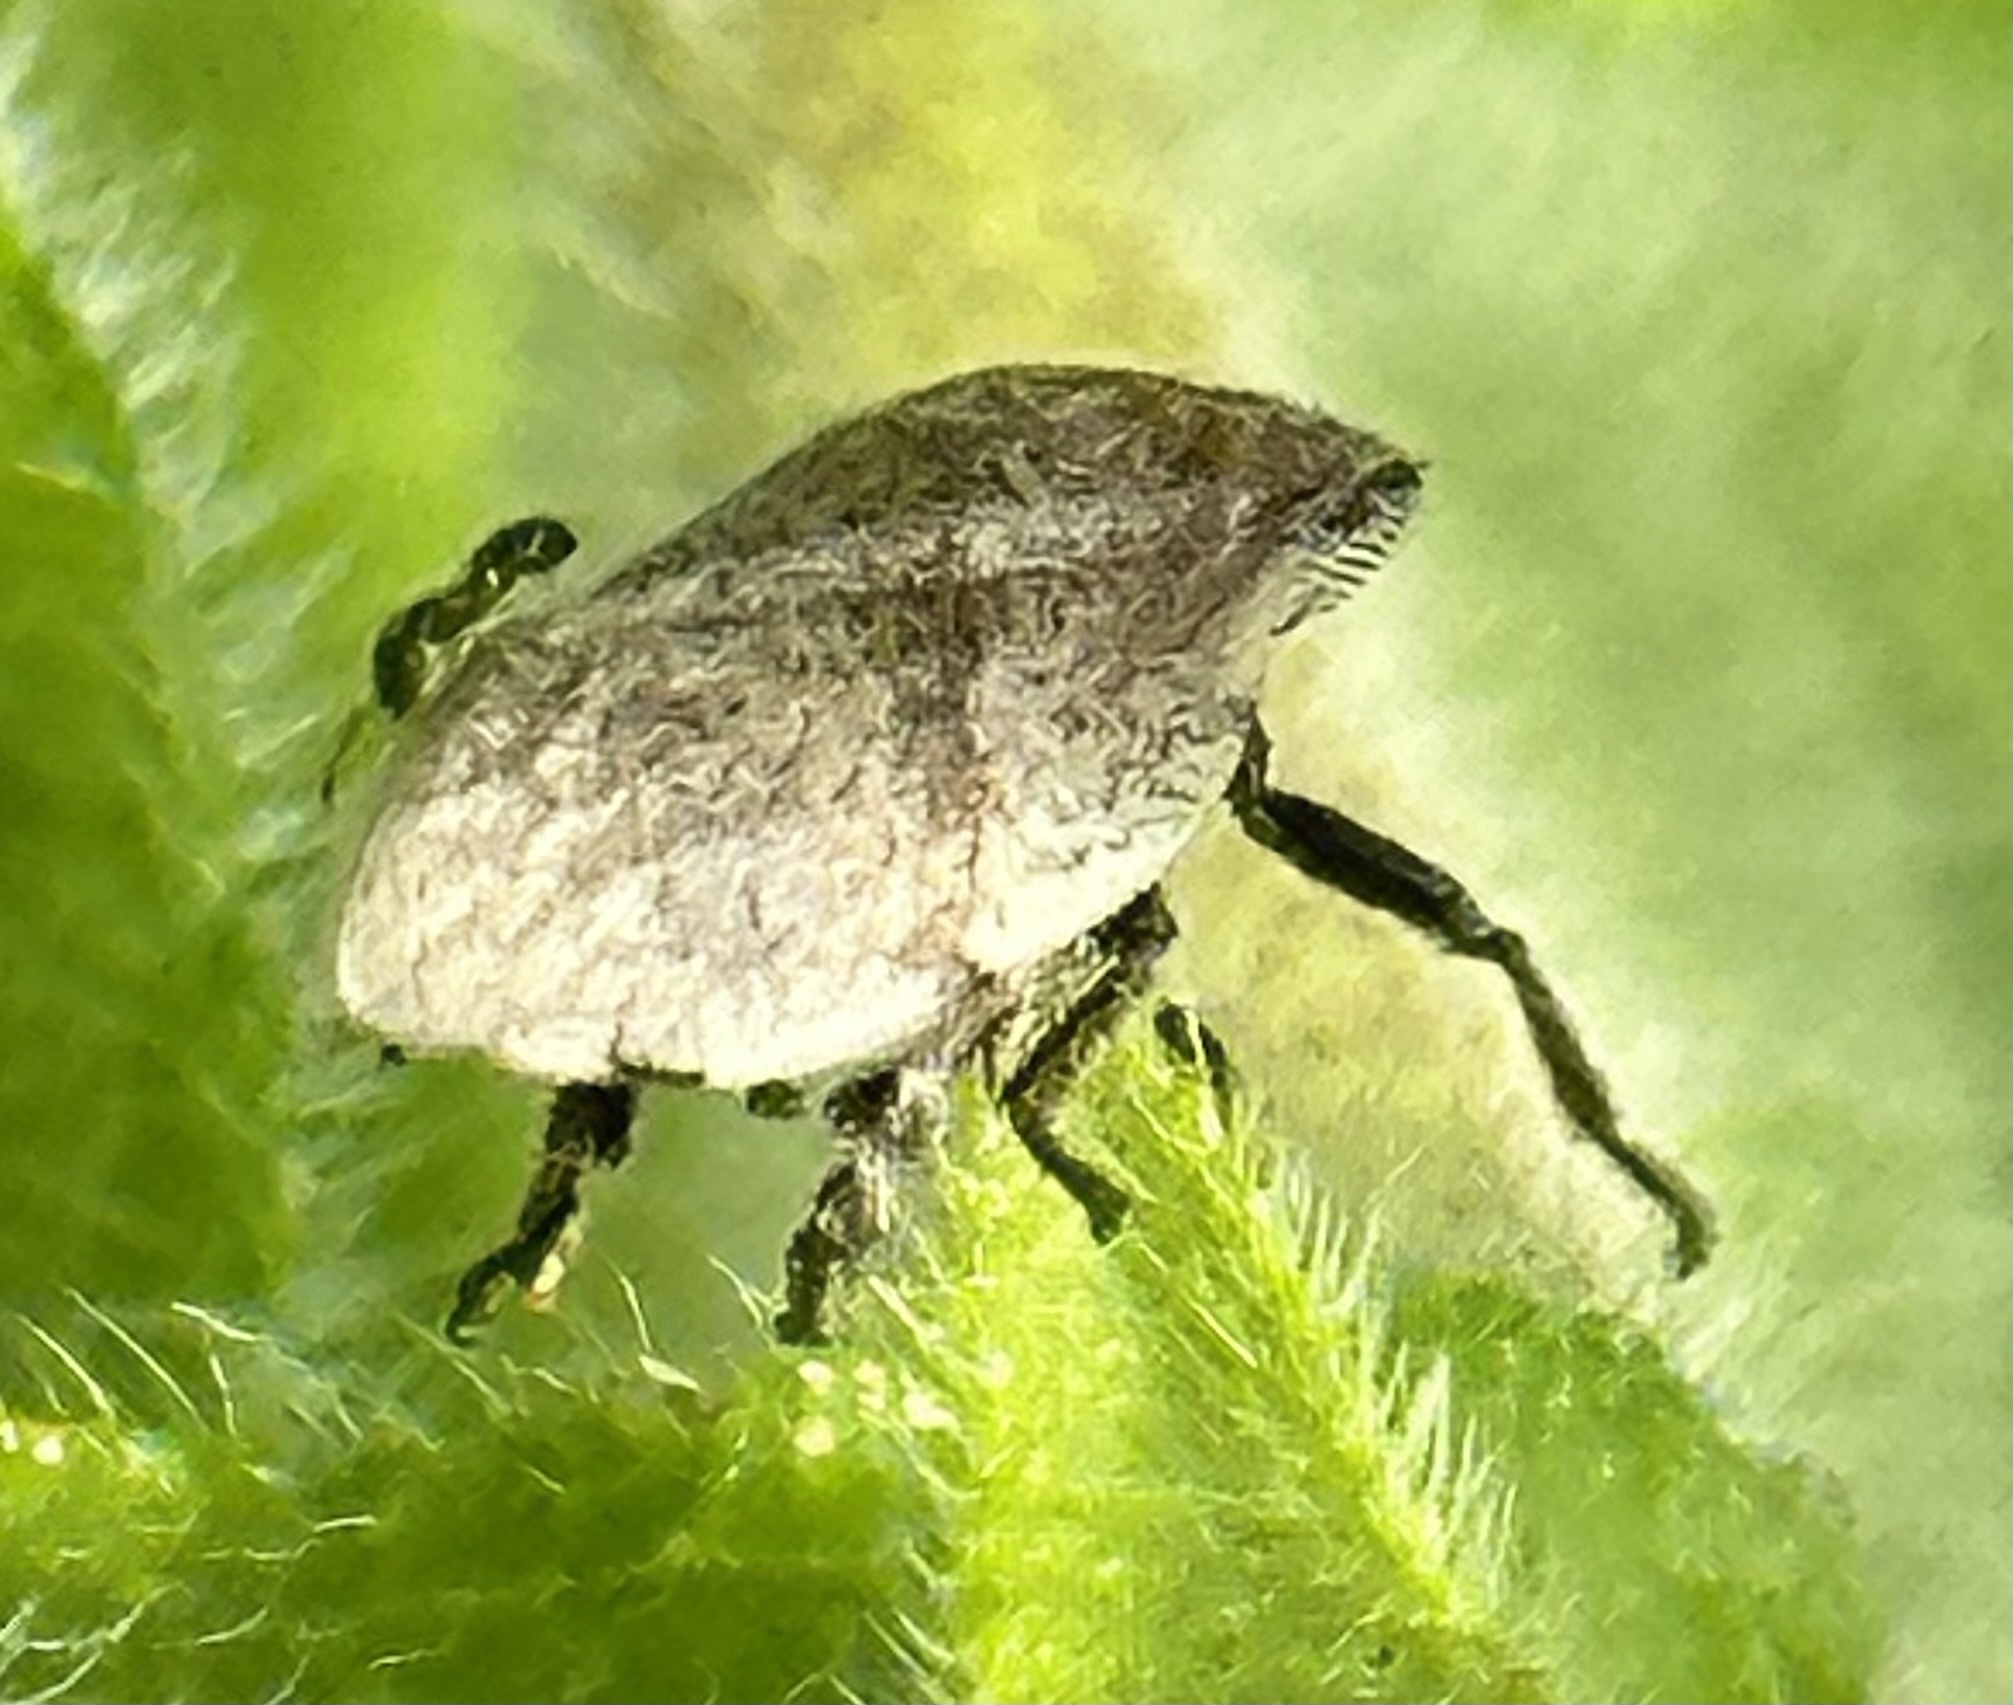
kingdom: Animalia
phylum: Arthropoda
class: Insecta
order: Hemiptera
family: Aphrophoridae
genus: Lepyronia
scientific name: Lepyronia gibbosa
